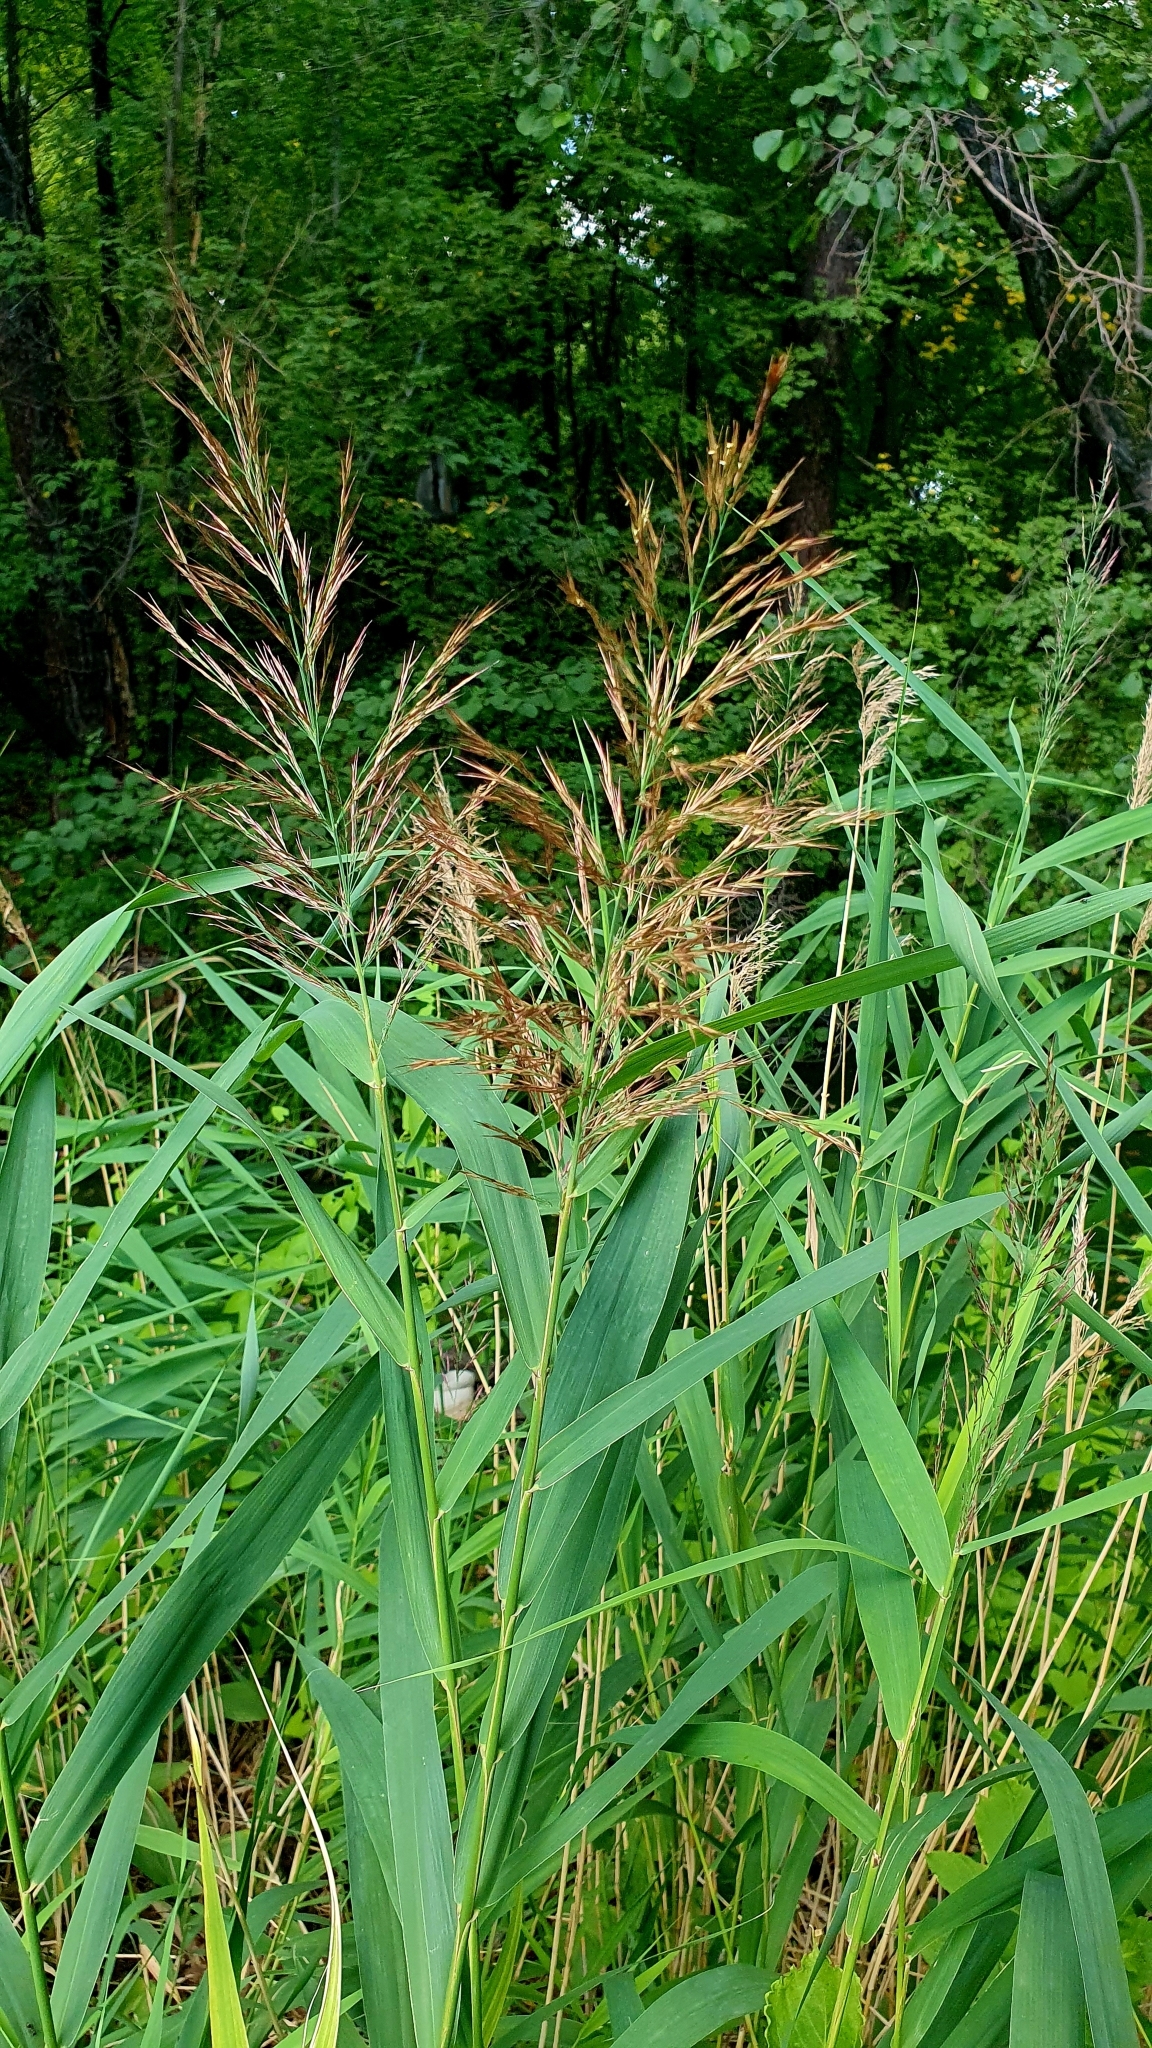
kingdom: Plantae
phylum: Tracheophyta
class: Liliopsida
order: Poales
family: Poaceae
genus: Phragmites
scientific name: Phragmites australis
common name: Common reed
